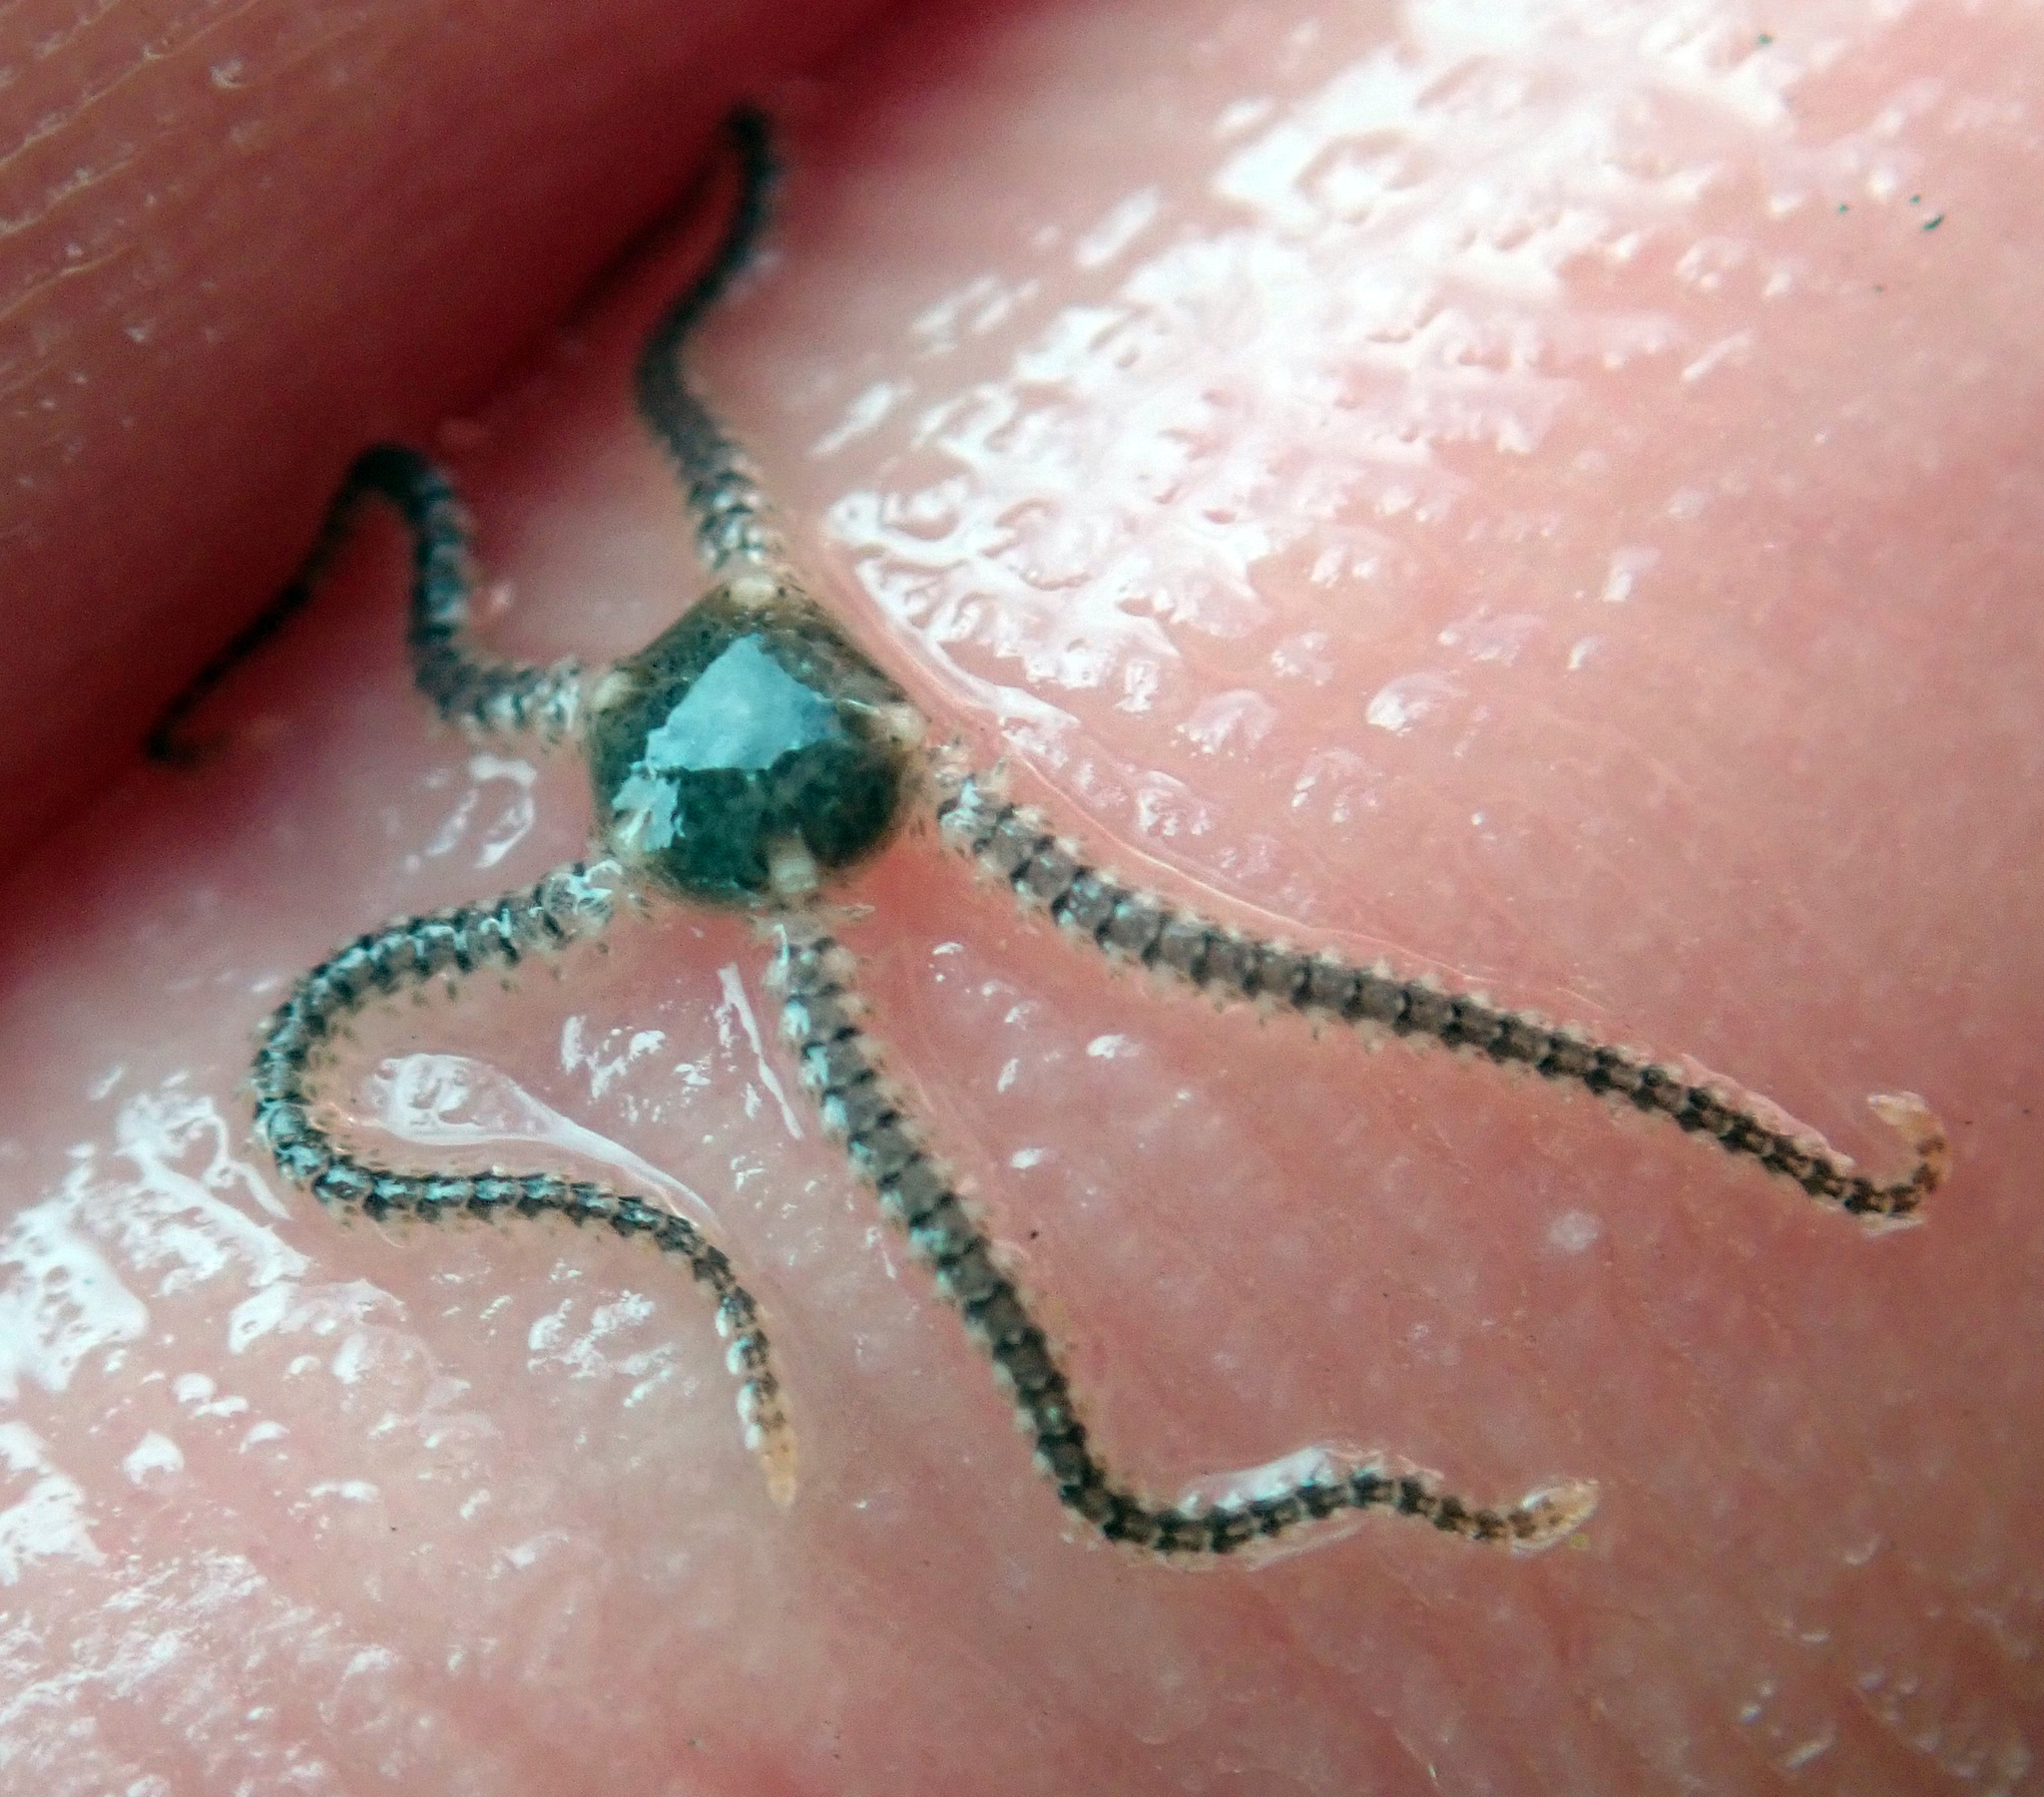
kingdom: Animalia
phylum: Echinodermata
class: Ophiuroidea
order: Amphilepidida
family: Ophionereididae
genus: Ophionereis
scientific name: Ophionereis fasciata
